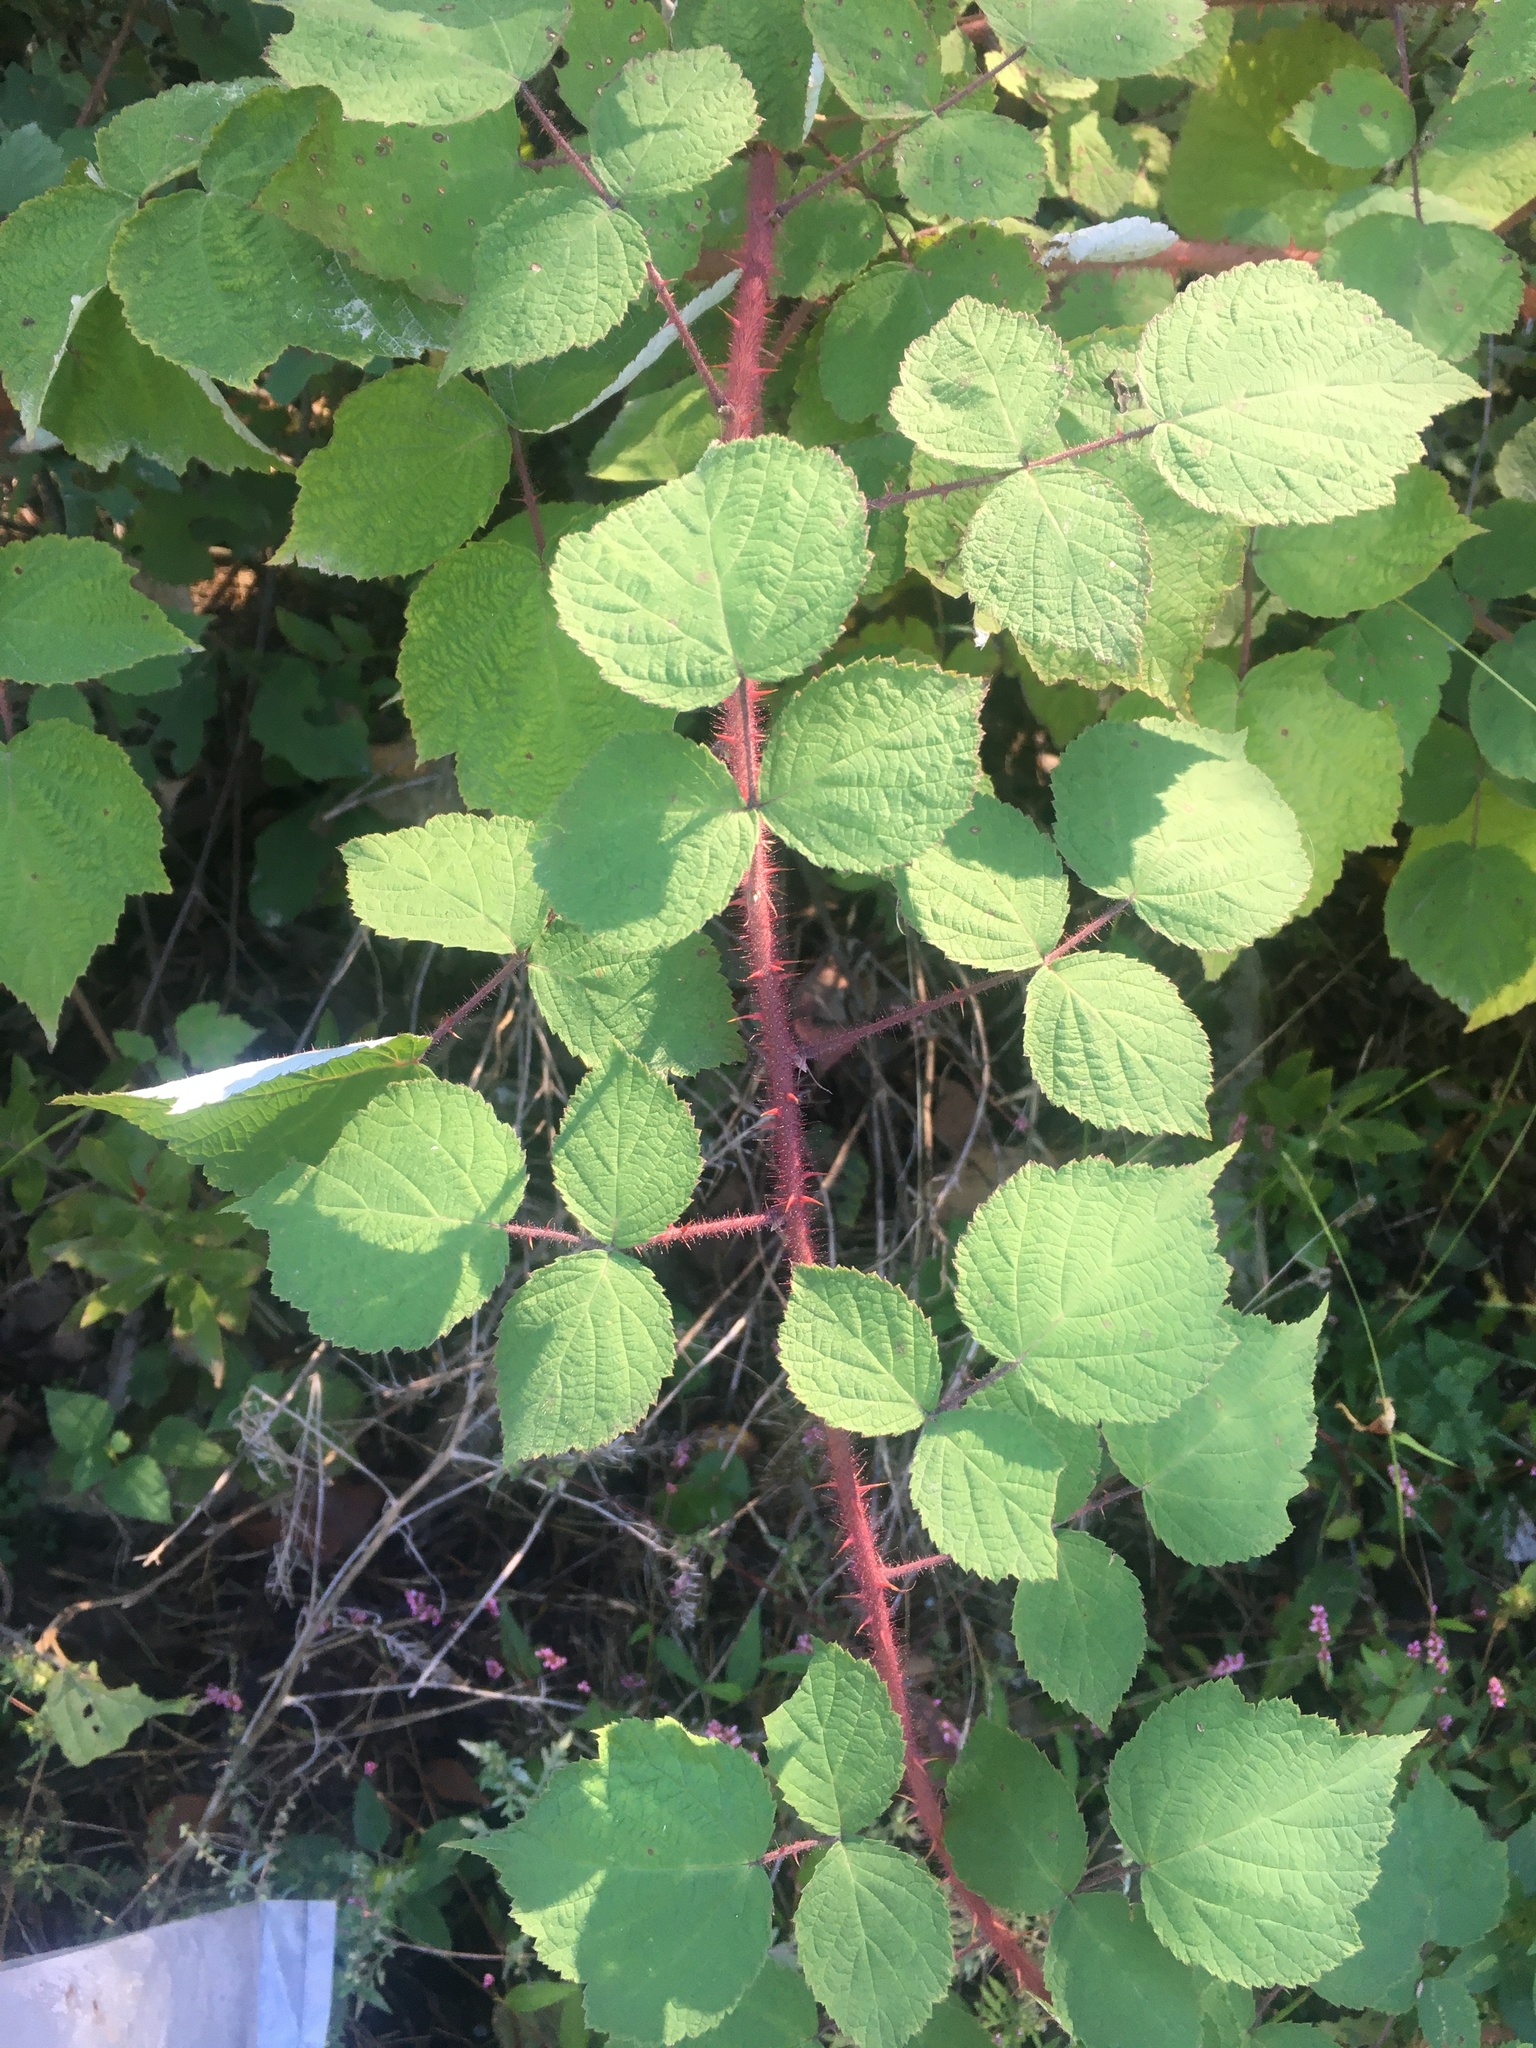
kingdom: Plantae
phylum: Tracheophyta
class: Magnoliopsida
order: Rosales
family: Rosaceae
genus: Rubus
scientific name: Rubus phoenicolasius
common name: Japanese wineberry
